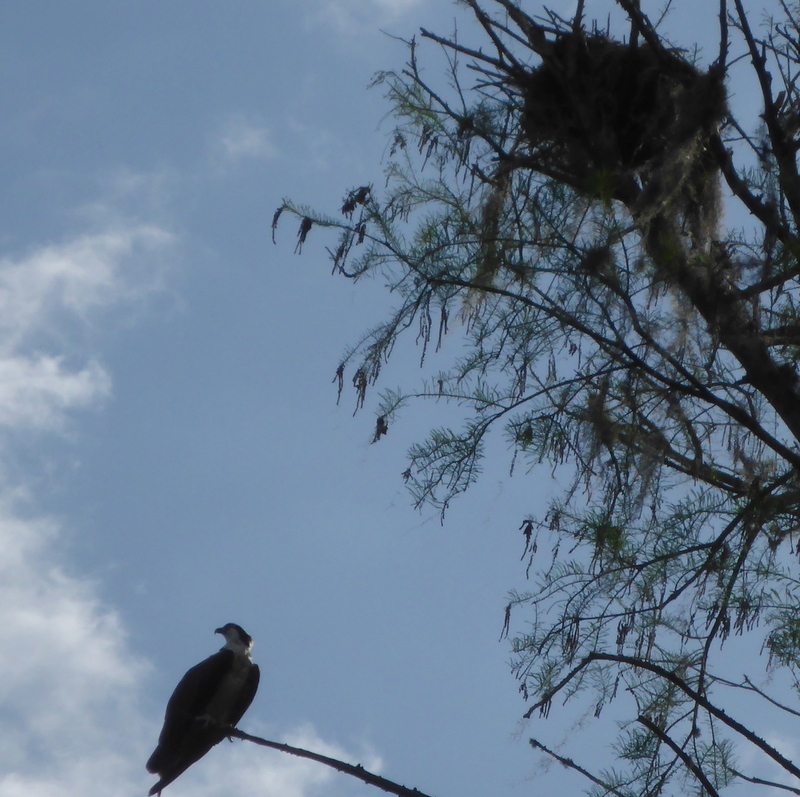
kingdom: Animalia
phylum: Chordata
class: Aves
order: Accipitriformes
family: Pandionidae
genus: Pandion
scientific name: Pandion haliaetus
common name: Osprey
